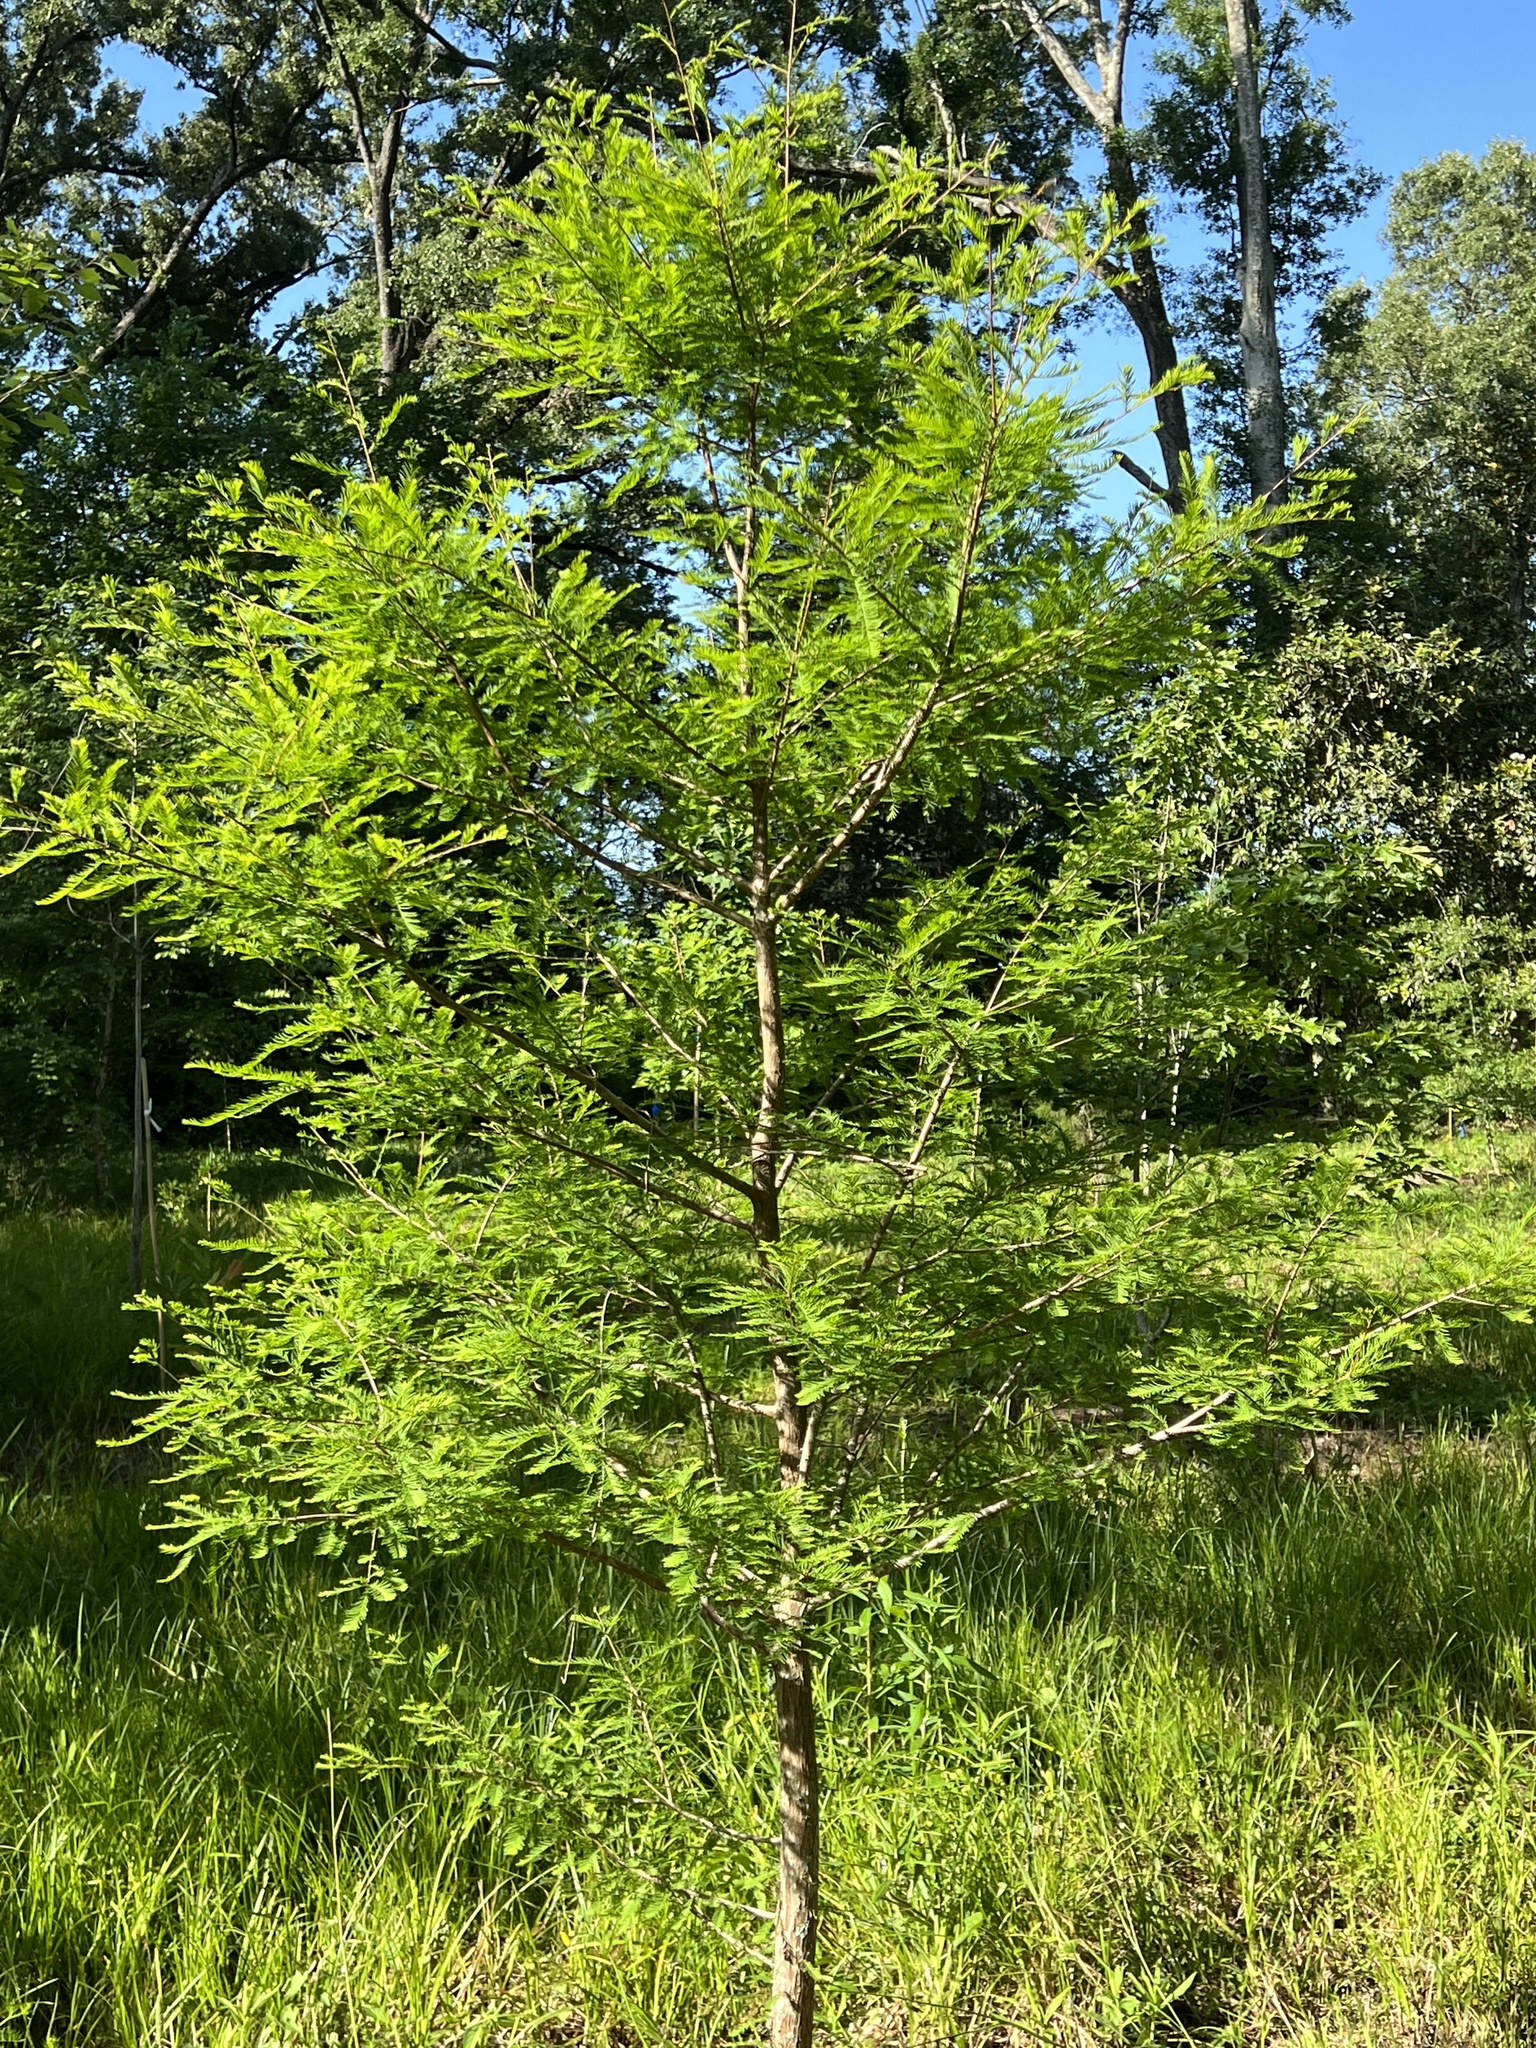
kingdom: Plantae
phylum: Tracheophyta
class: Pinopsida
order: Pinales
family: Cupressaceae
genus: Taxodium
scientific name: Taxodium distichum
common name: Bald cypress
